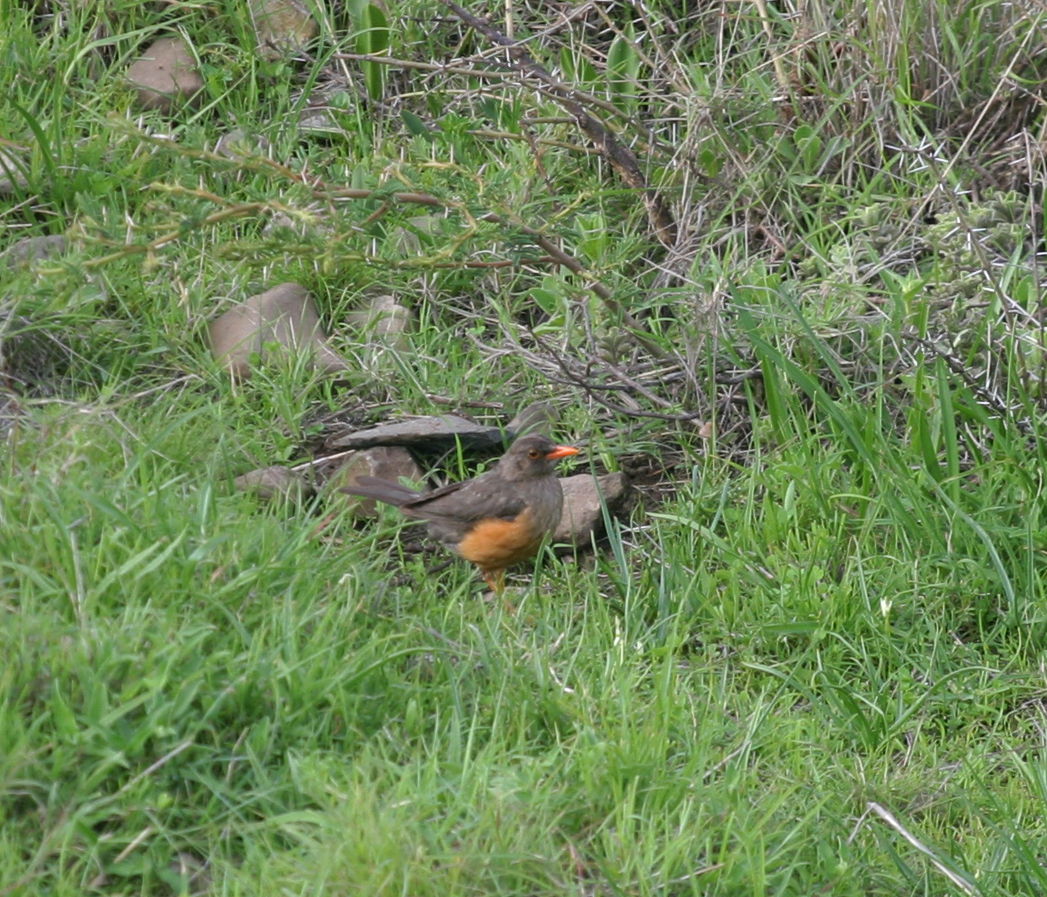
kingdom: Animalia
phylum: Chordata
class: Aves
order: Passeriformes
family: Turdidae
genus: Turdus
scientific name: Turdus abyssinicus
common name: Abyssinian thrush
